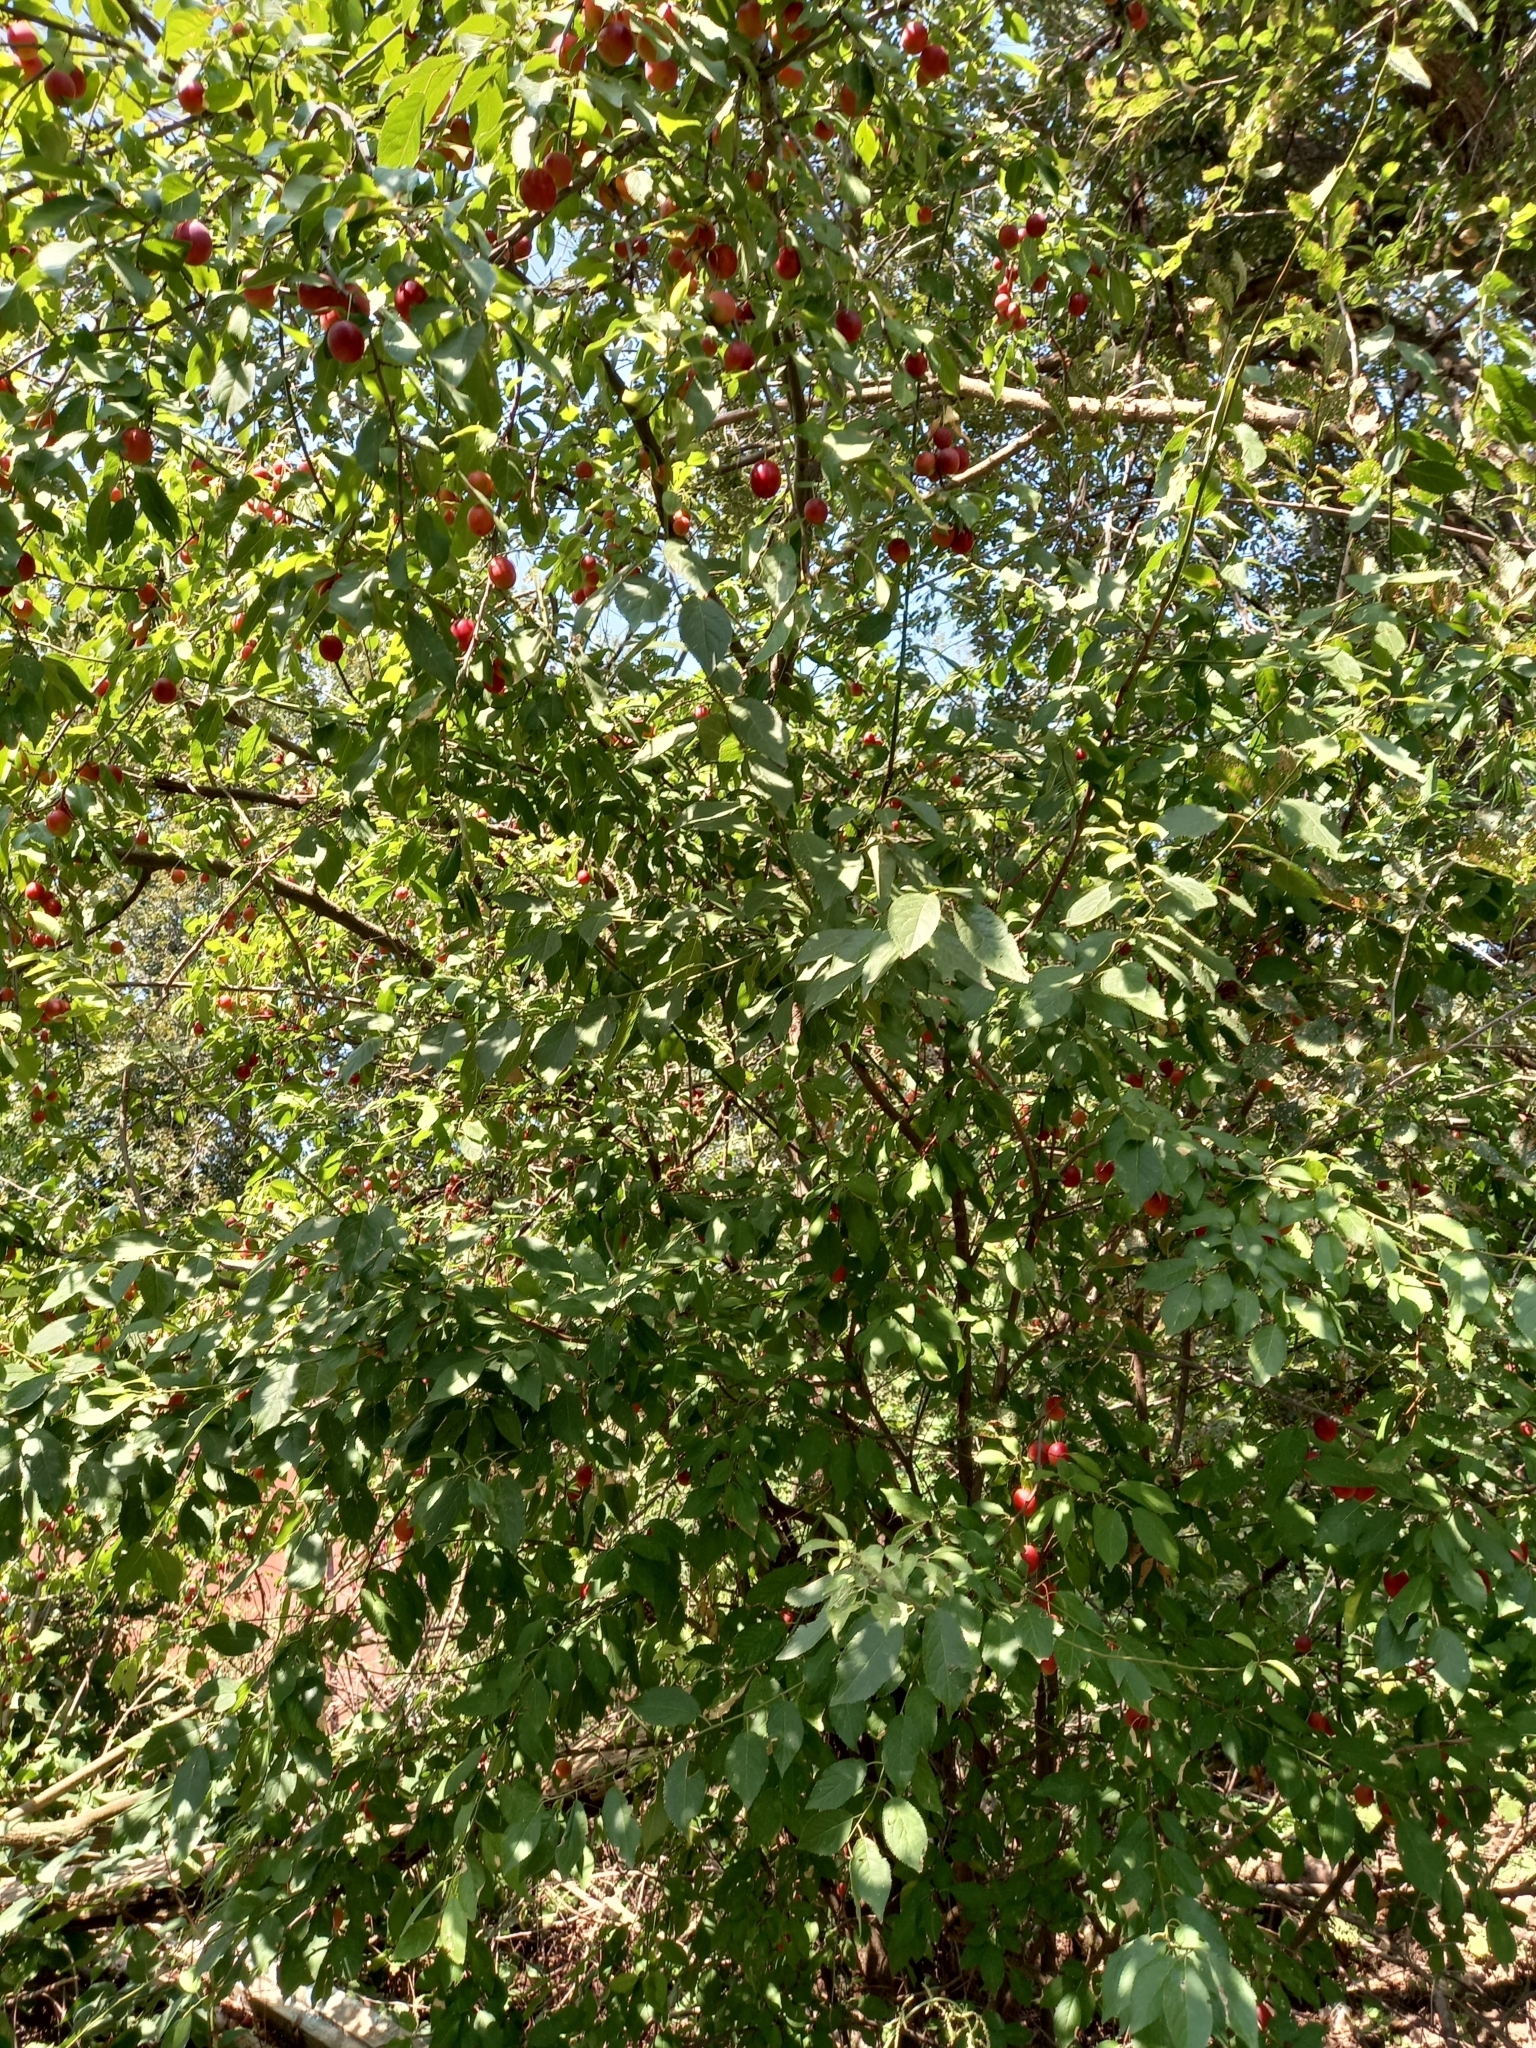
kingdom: Plantae
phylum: Tracheophyta
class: Magnoliopsida
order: Rosales
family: Rosaceae
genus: Prunus
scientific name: Prunus cerasifera
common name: Cherry plum
